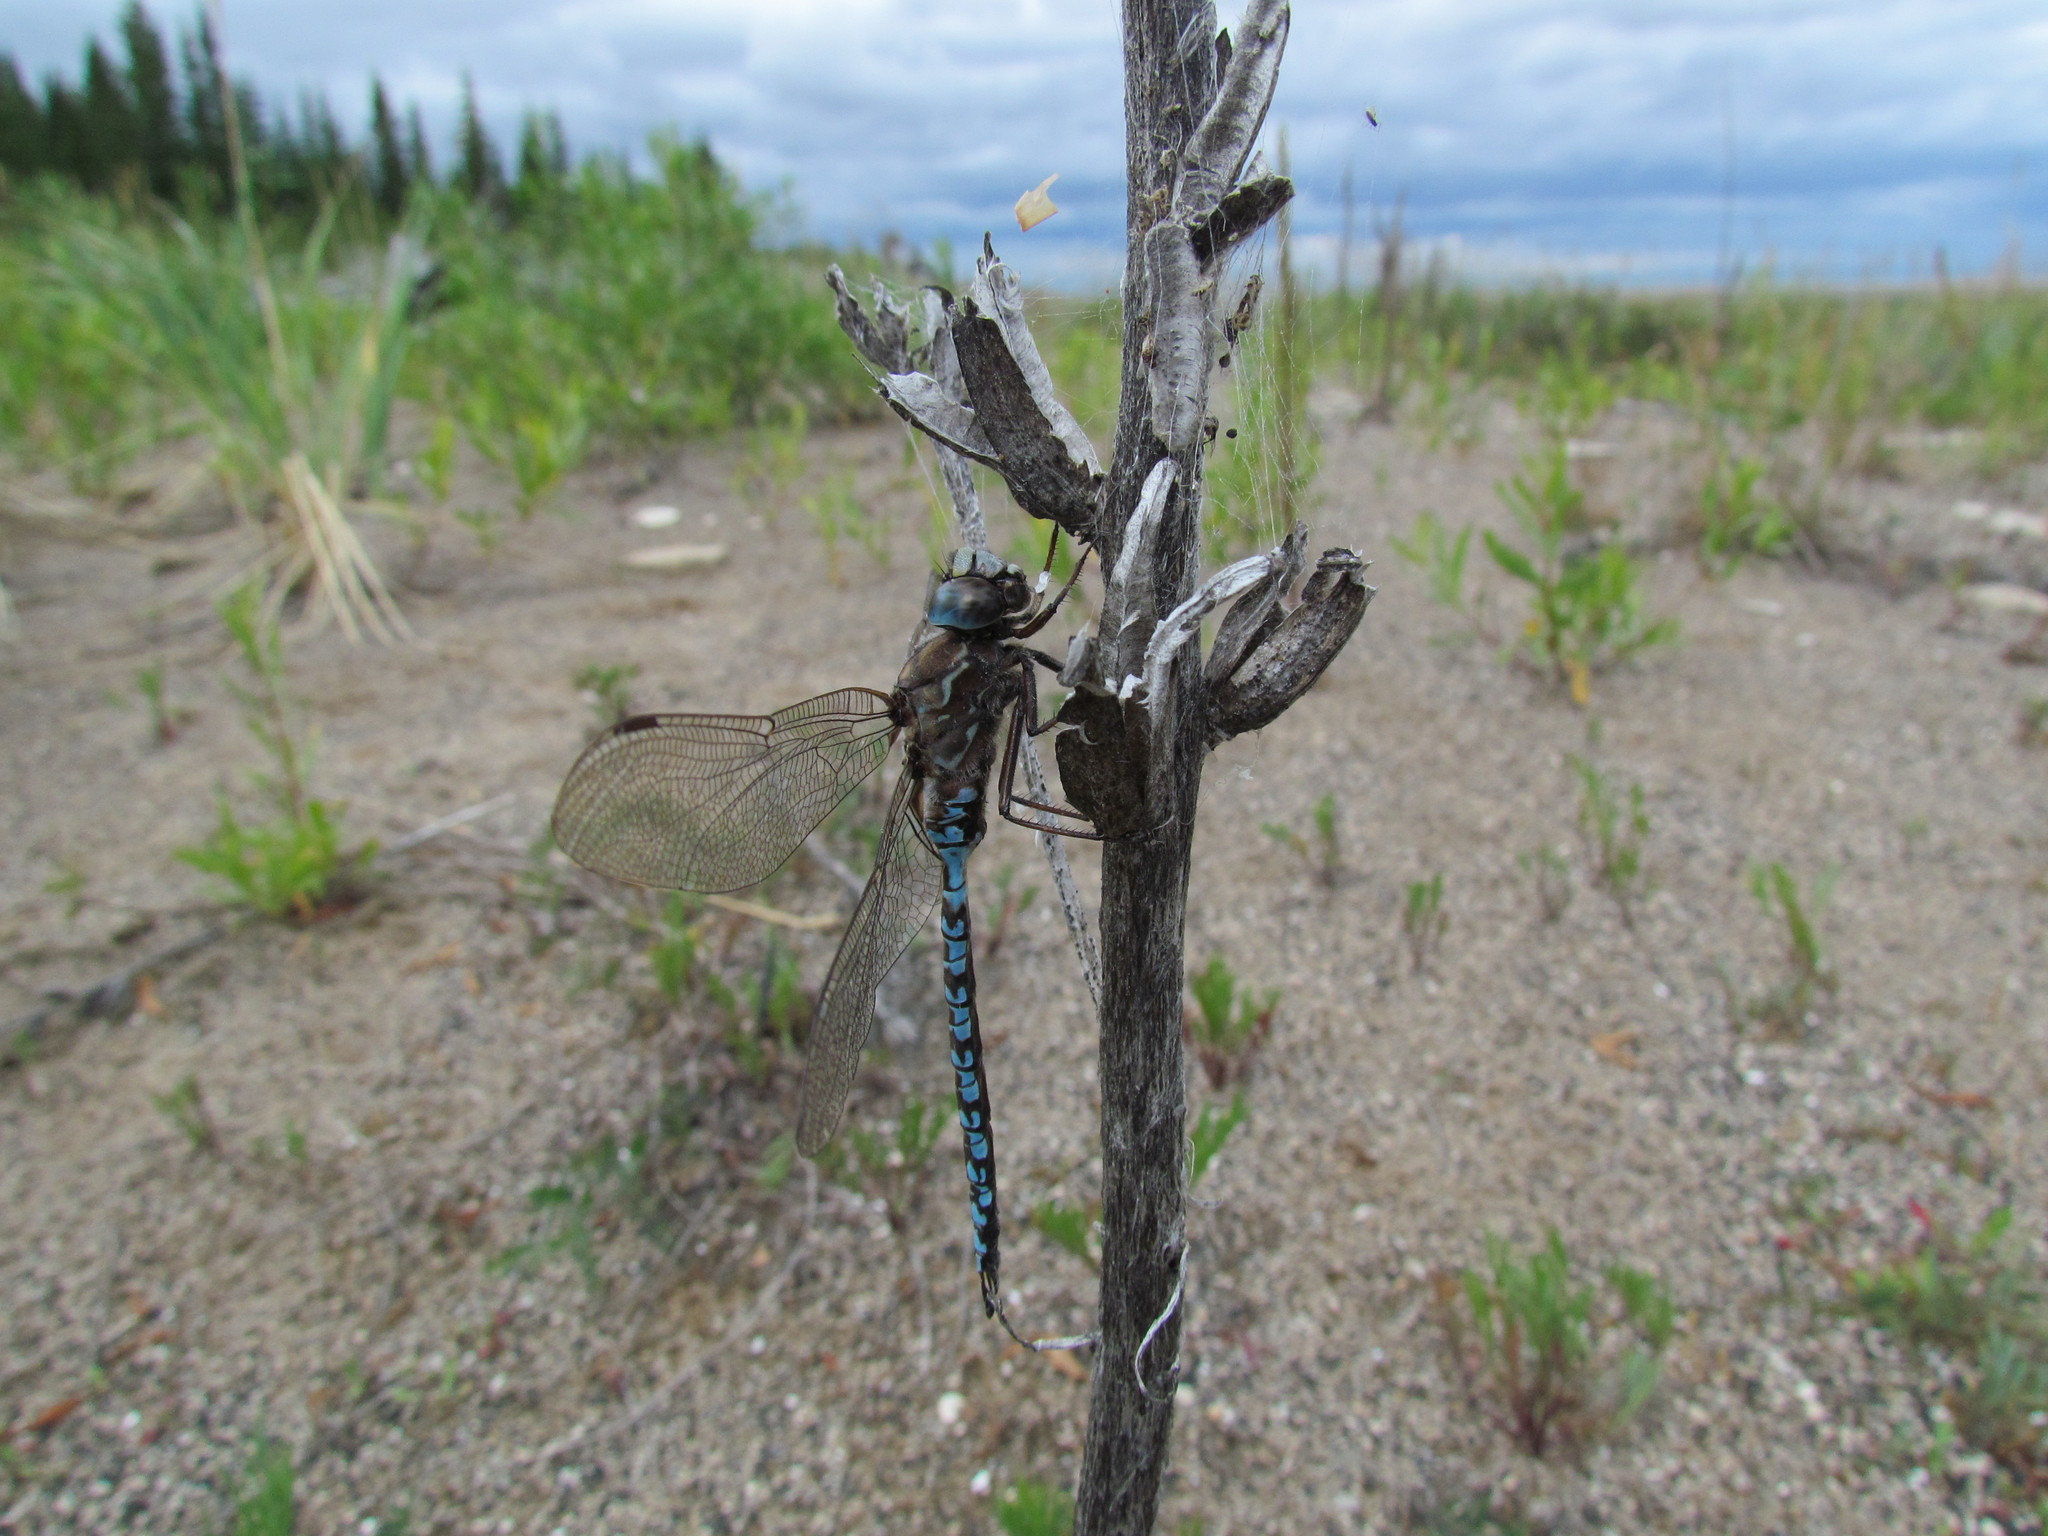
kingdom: Animalia
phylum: Arthropoda
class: Insecta
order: Odonata
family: Aeshnidae
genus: Aeshna
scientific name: Aeshna sitchensis
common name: Zigzag darner
